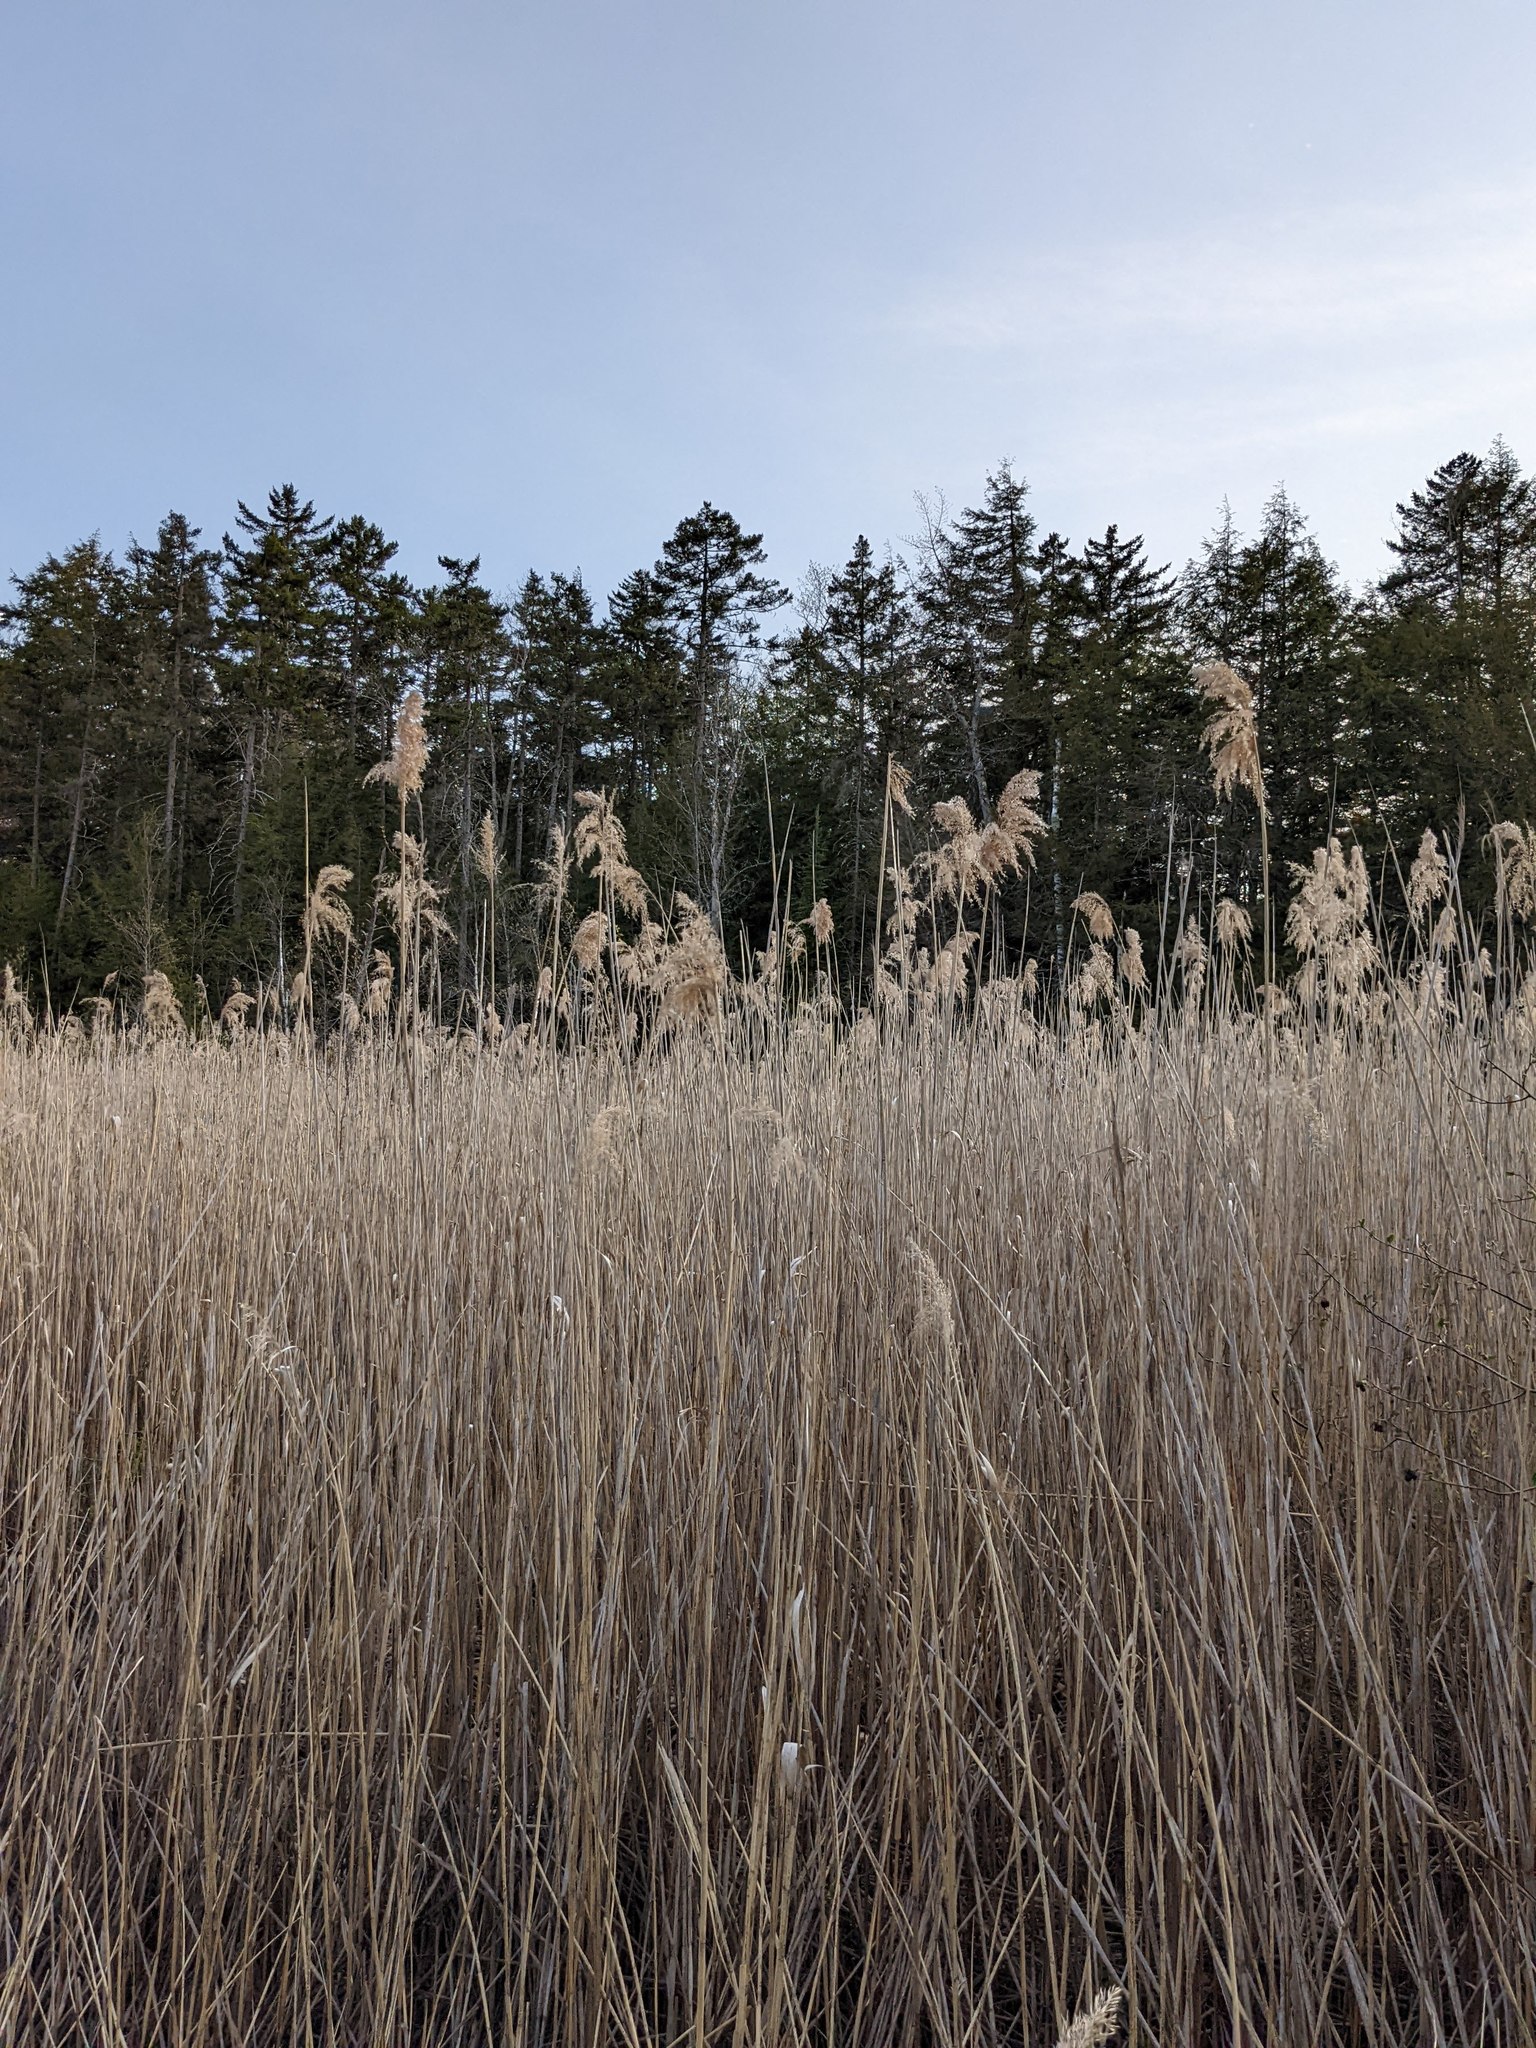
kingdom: Plantae
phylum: Tracheophyta
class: Liliopsida
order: Poales
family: Poaceae
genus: Phragmites
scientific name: Phragmites australis
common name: Common reed
